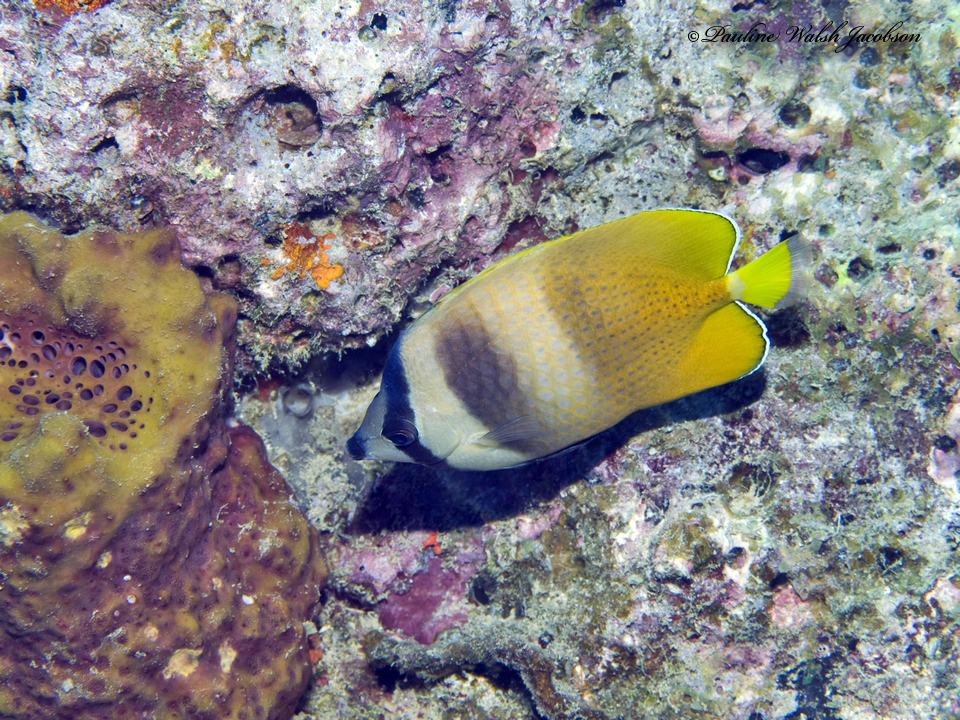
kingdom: Animalia
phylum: Chordata
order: Perciformes
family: Chaetodontidae
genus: Chaetodon
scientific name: Chaetodon kleinii
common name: Klein's butterflyfish
